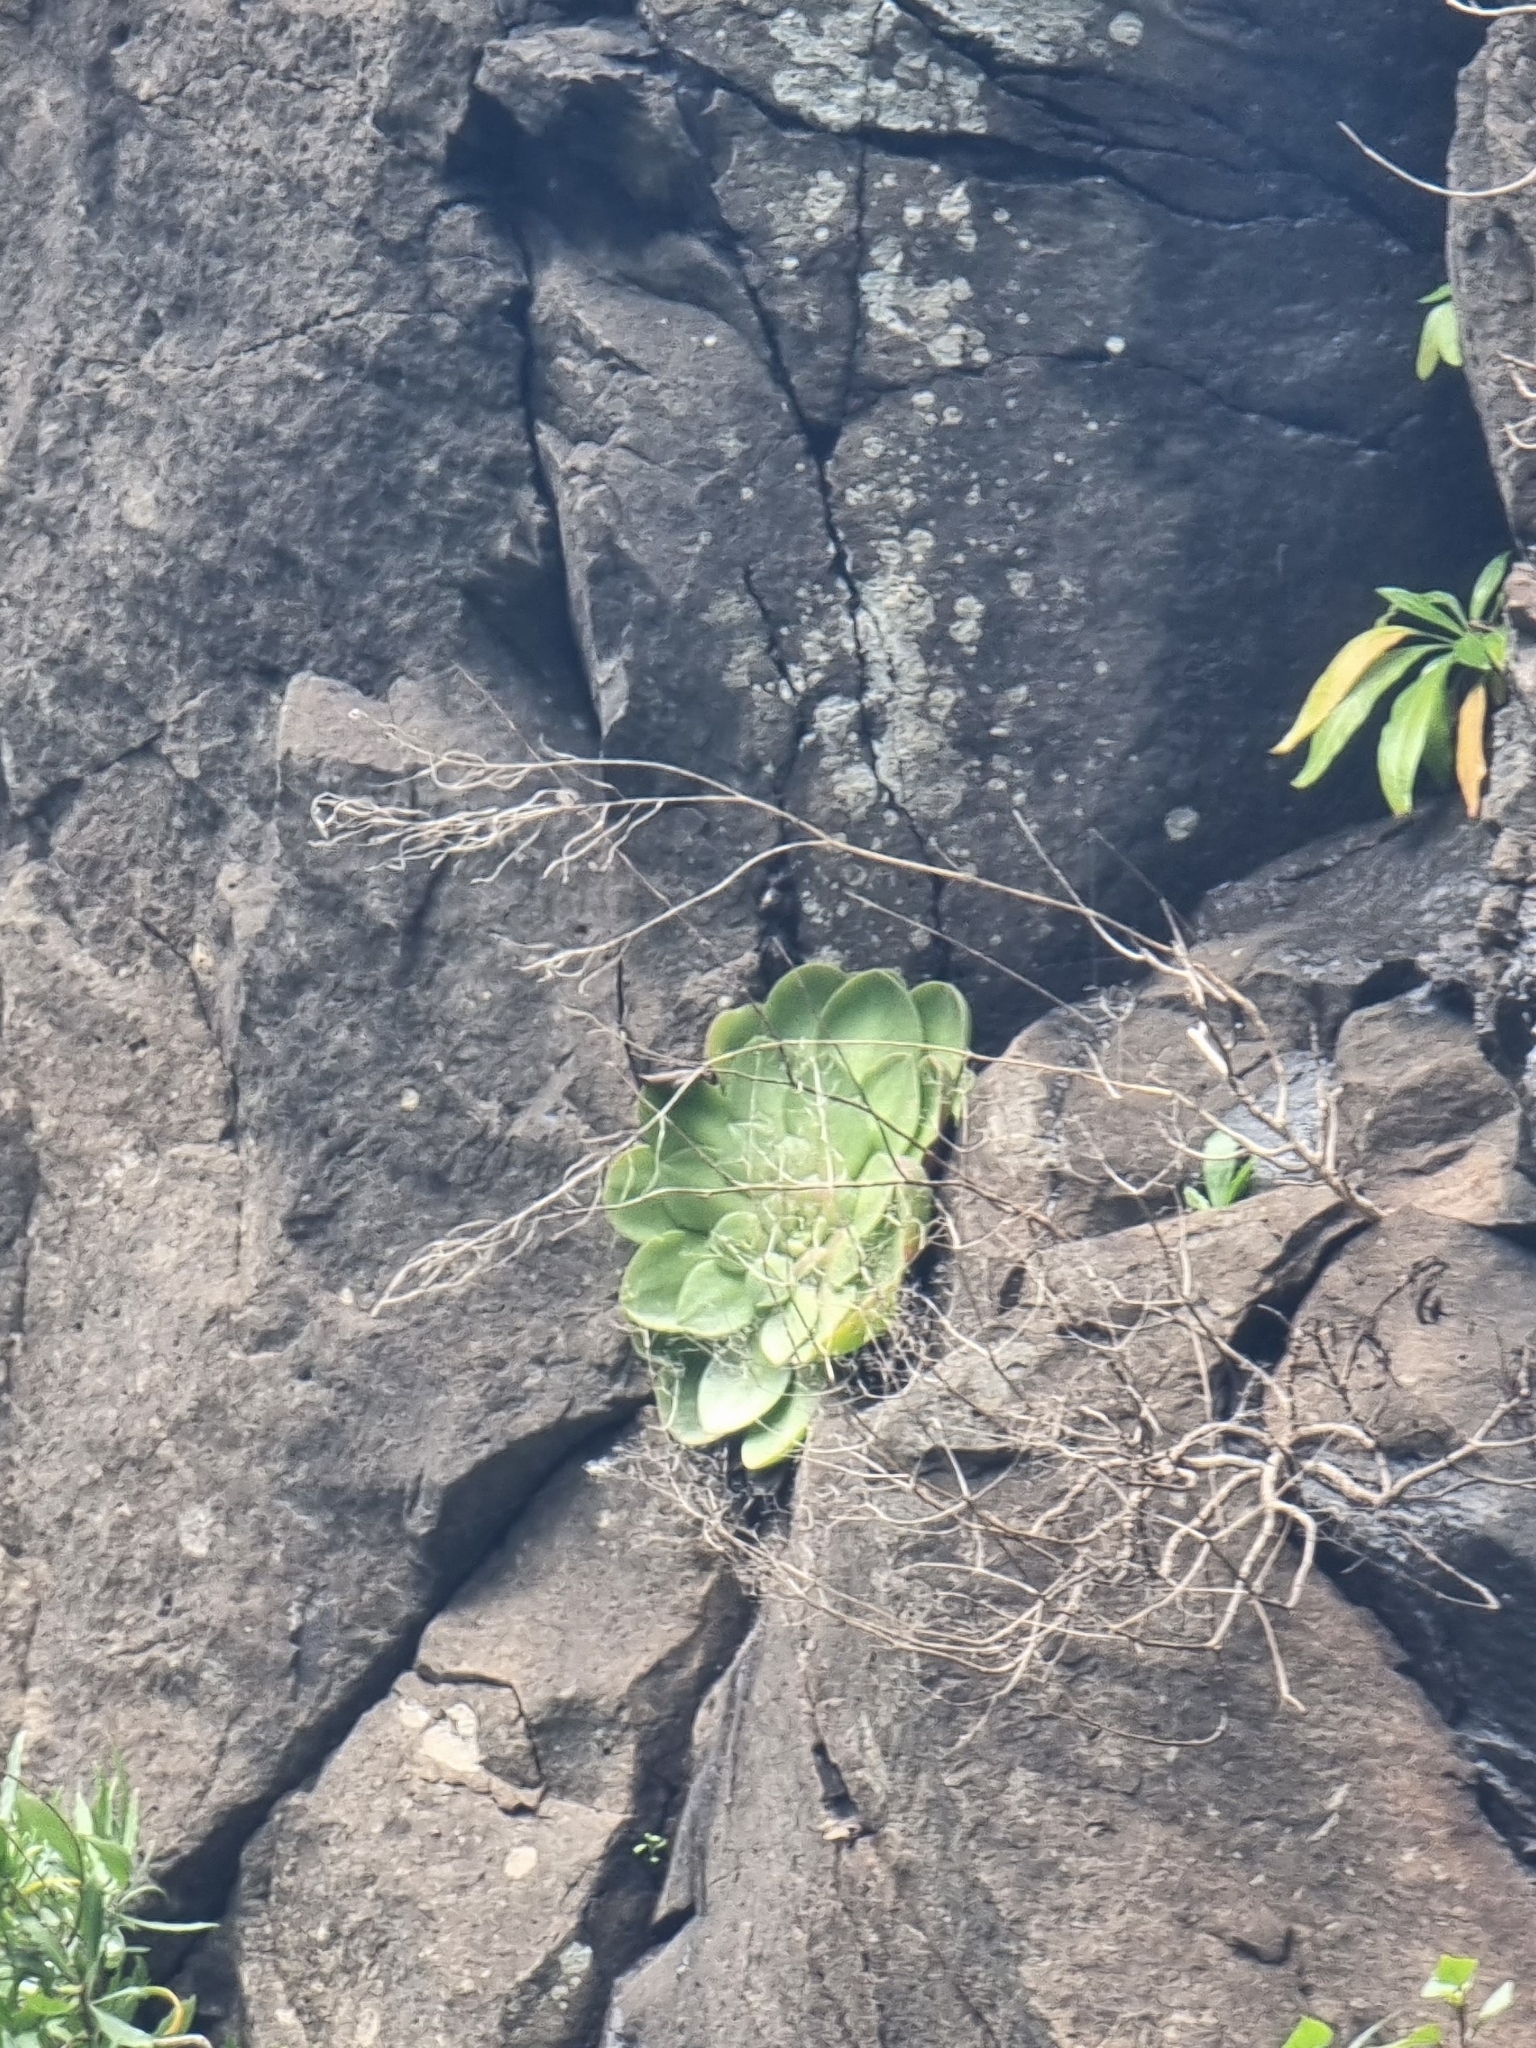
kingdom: Plantae
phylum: Tracheophyta
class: Magnoliopsida
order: Saxifragales
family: Crassulaceae
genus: Aeonium
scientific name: Aeonium glandulosum
